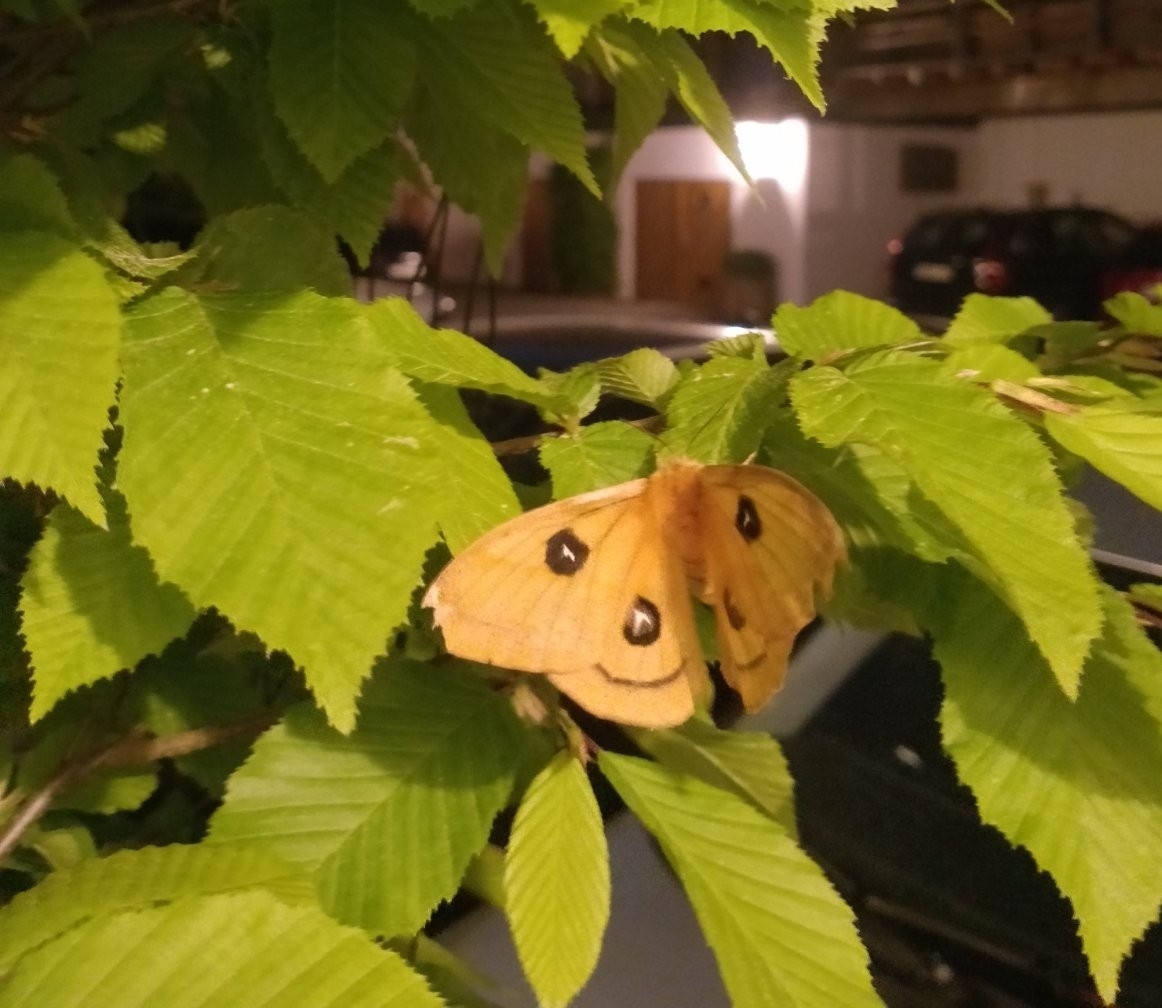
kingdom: Animalia
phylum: Arthropoda
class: Insecta
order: Lepidoptera
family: Saturniidae
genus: Aglia
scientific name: Aglia tau
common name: Tau emperor
